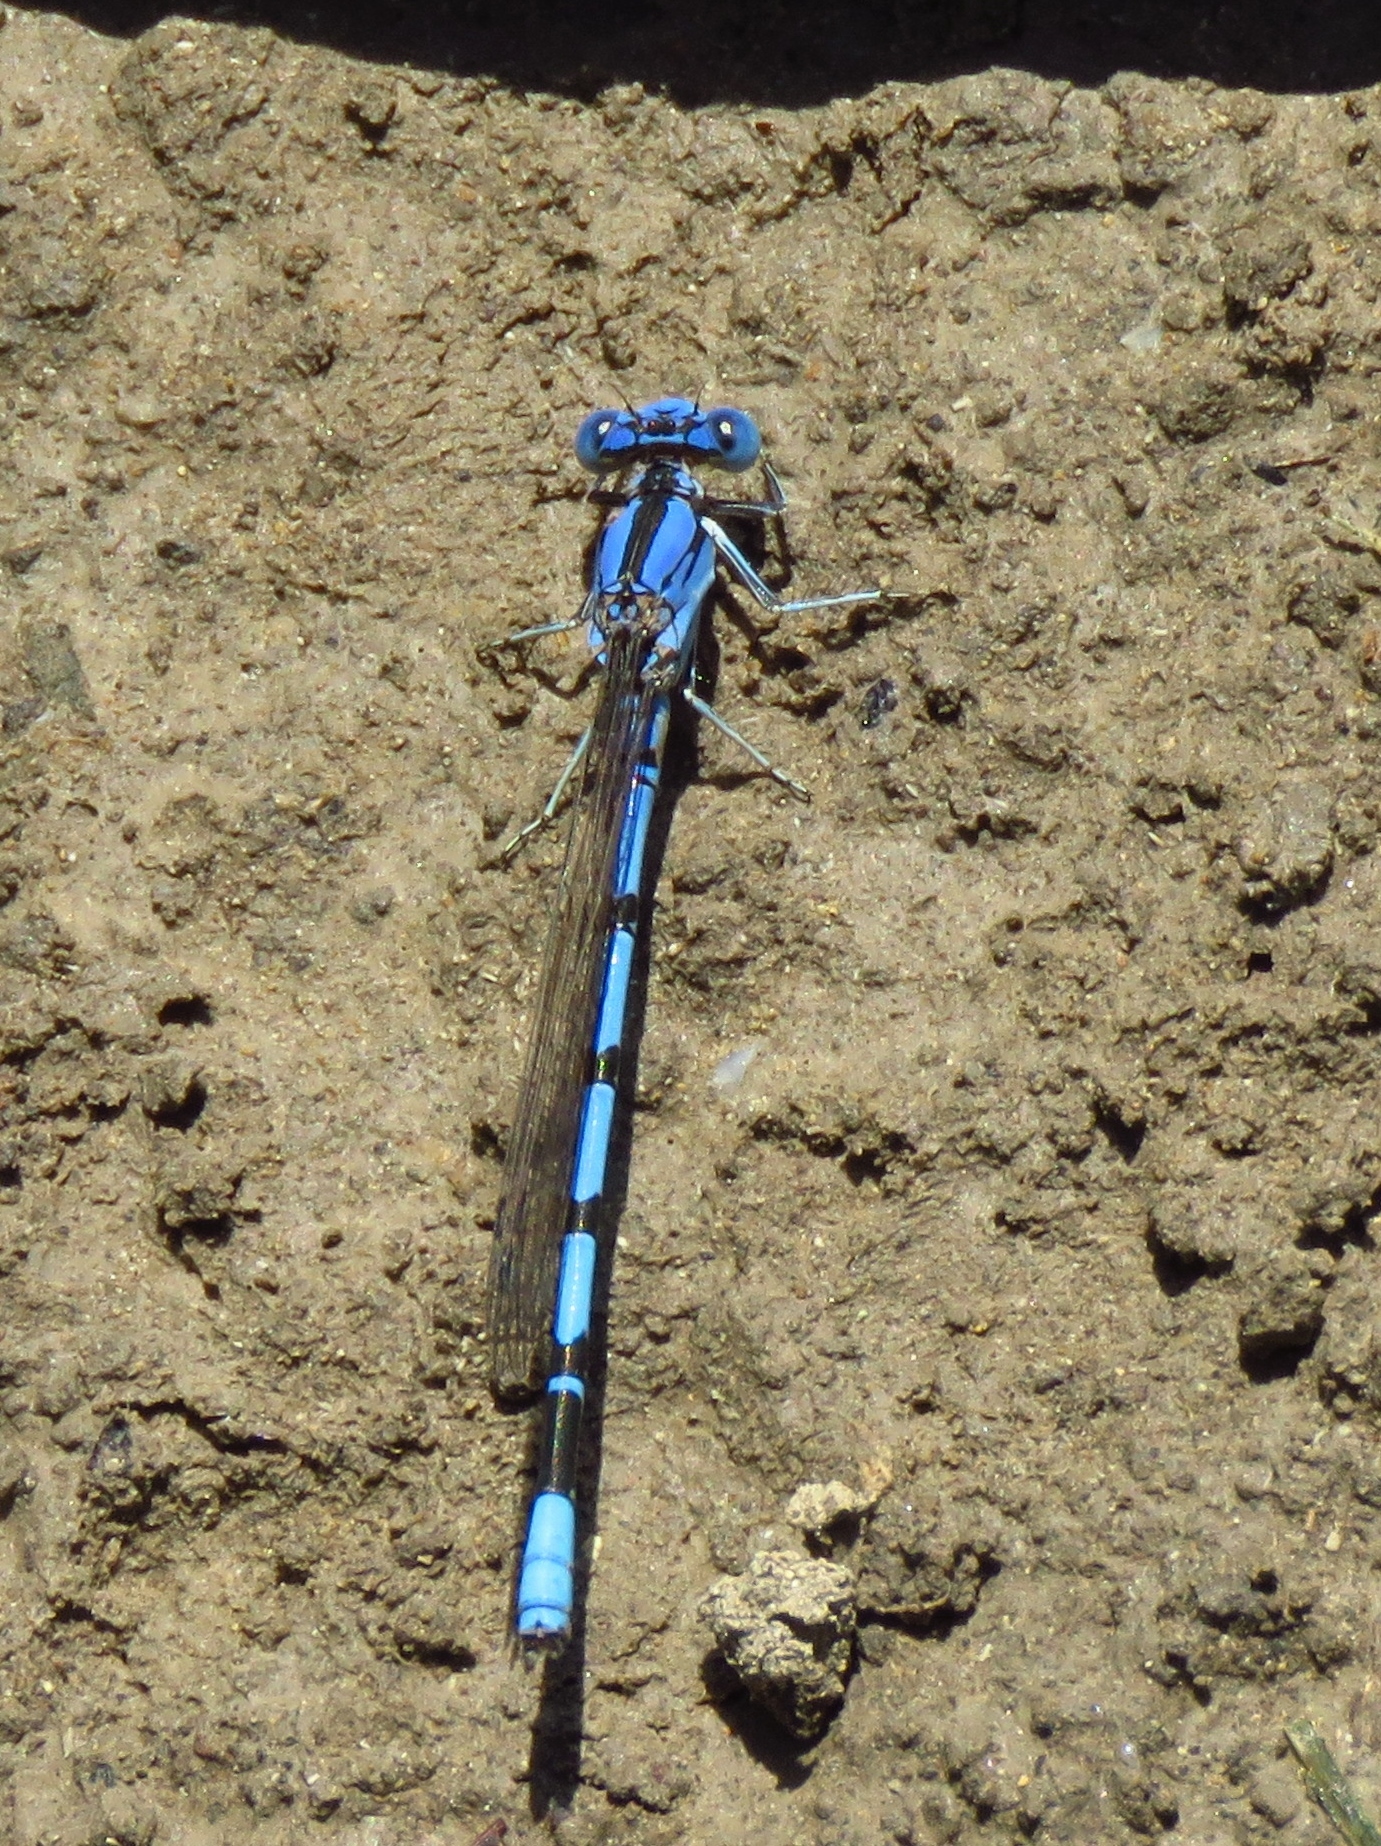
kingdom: Animalia
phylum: Arthropoda
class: Insecta
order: Odonata
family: Coenagrionidae
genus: Argia
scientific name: Argia nahuana
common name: Aztec dancer
